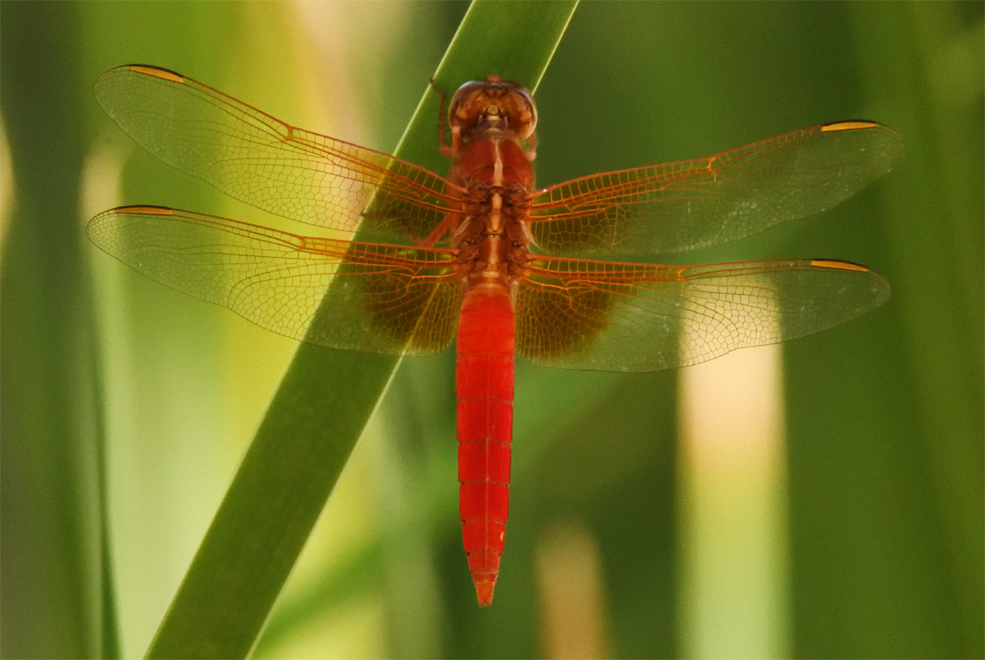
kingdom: Animalia
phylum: Arthropoda
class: Insecta
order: Odonata
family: Libellulidae
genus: Libellula
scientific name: Libellula croceipennis
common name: Neon skimmer
